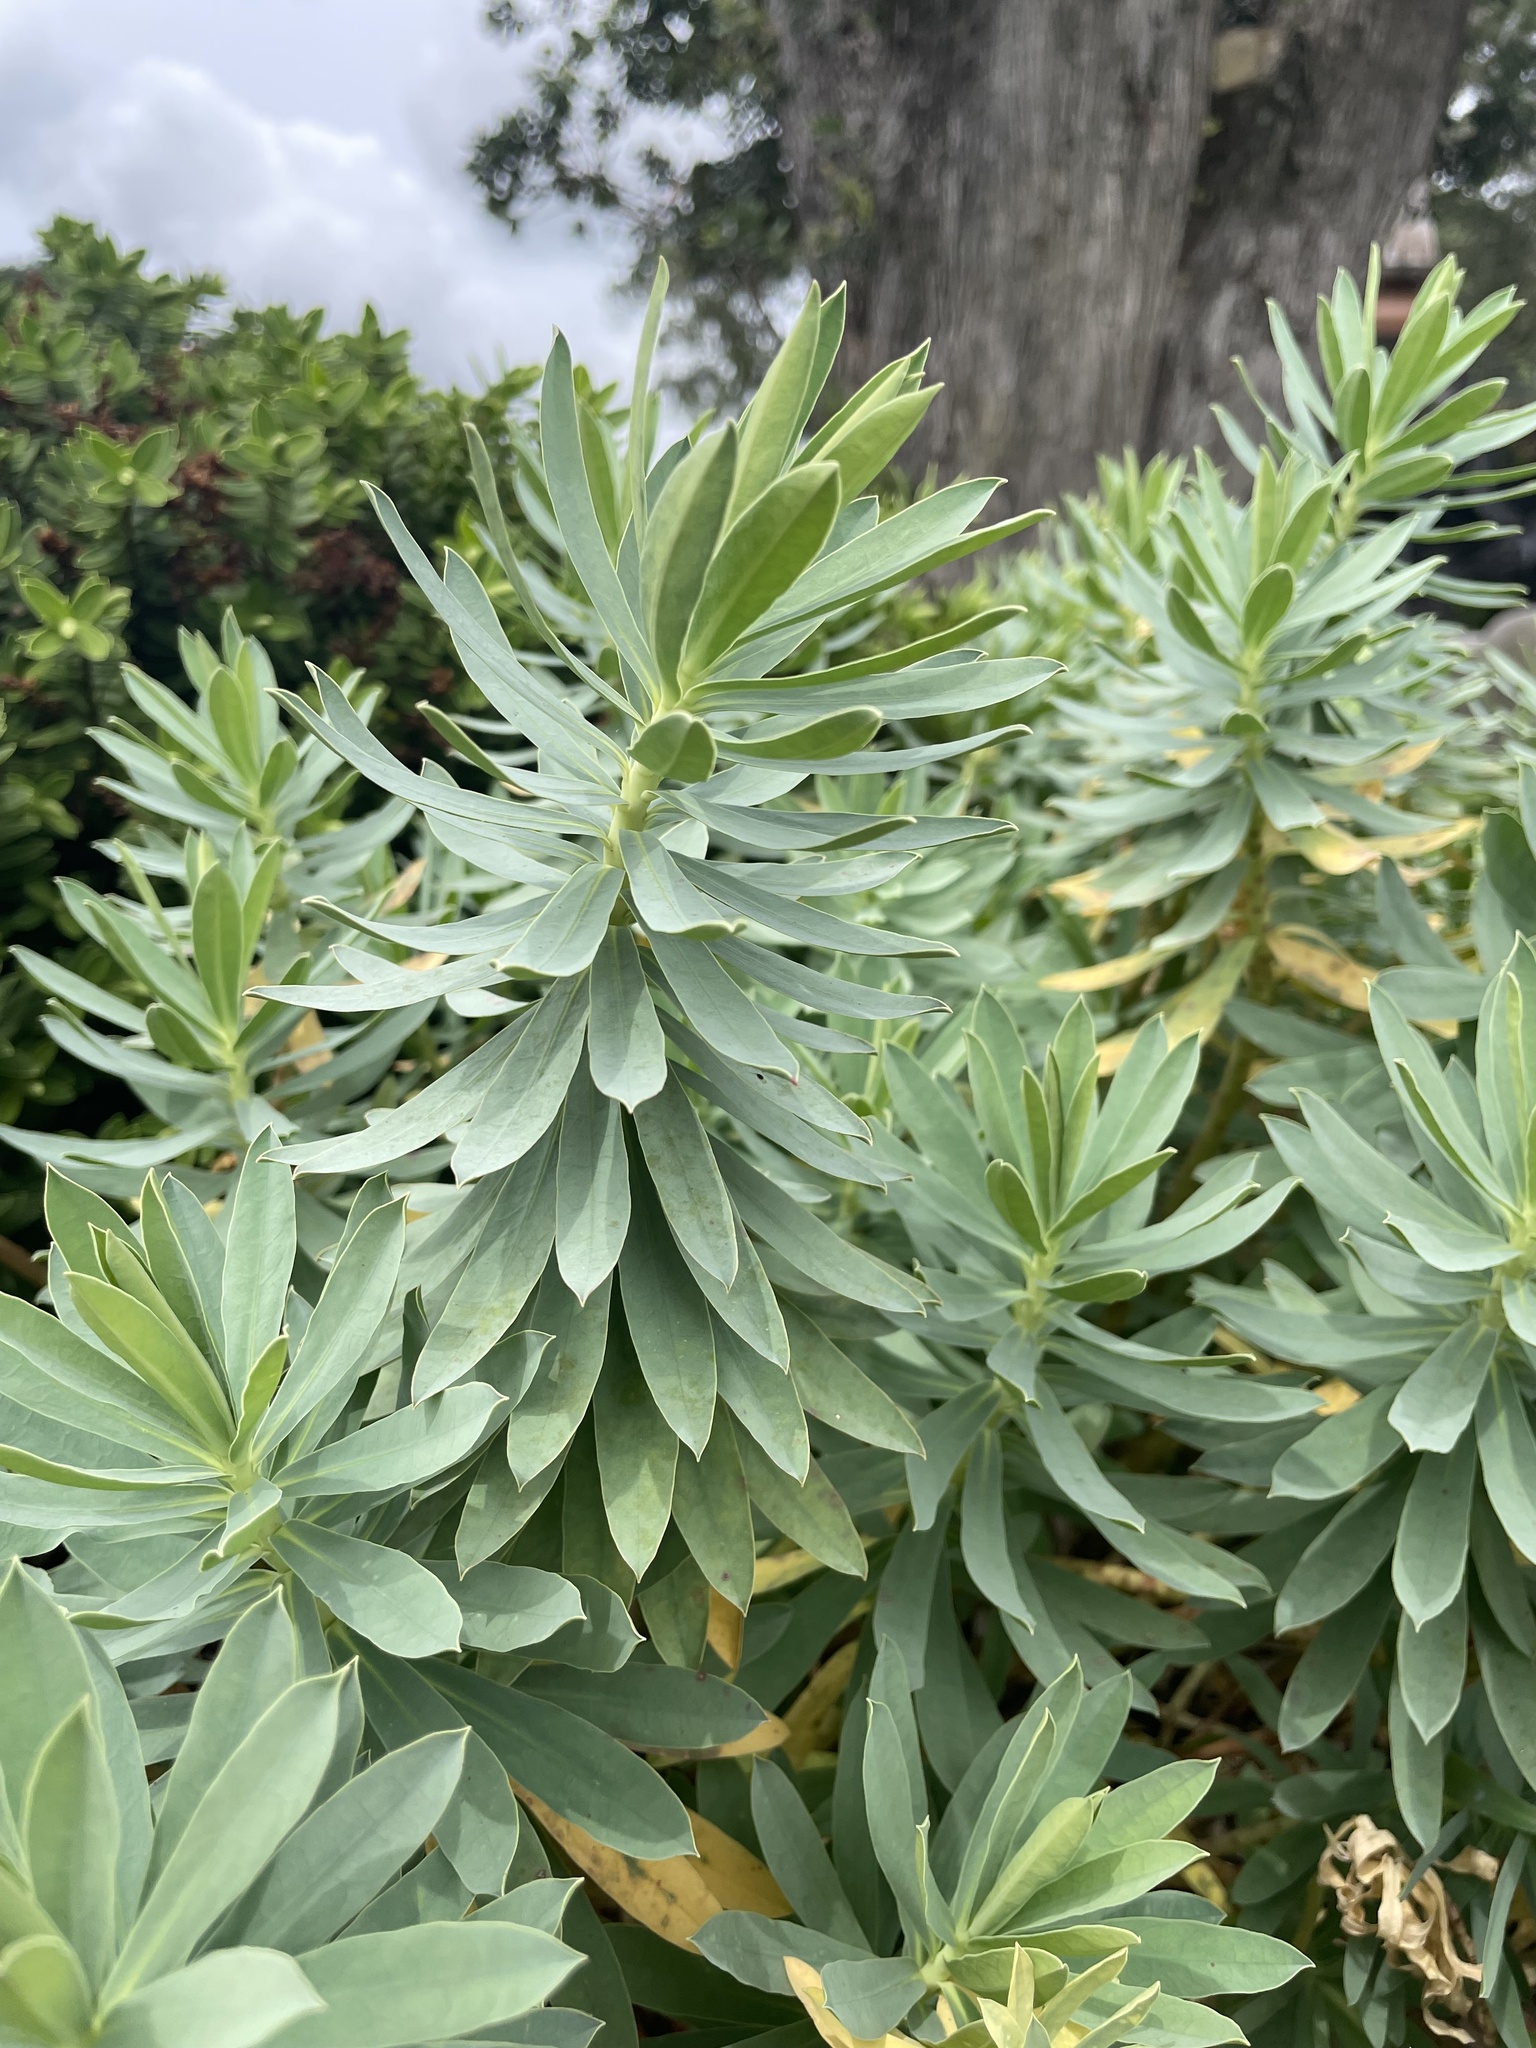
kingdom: Plantae
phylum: Tracheophyta
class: Magnoliopsida
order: Malpighiales
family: Euphorbiaceae
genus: Euphorbia
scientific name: Euphorbia glauca
